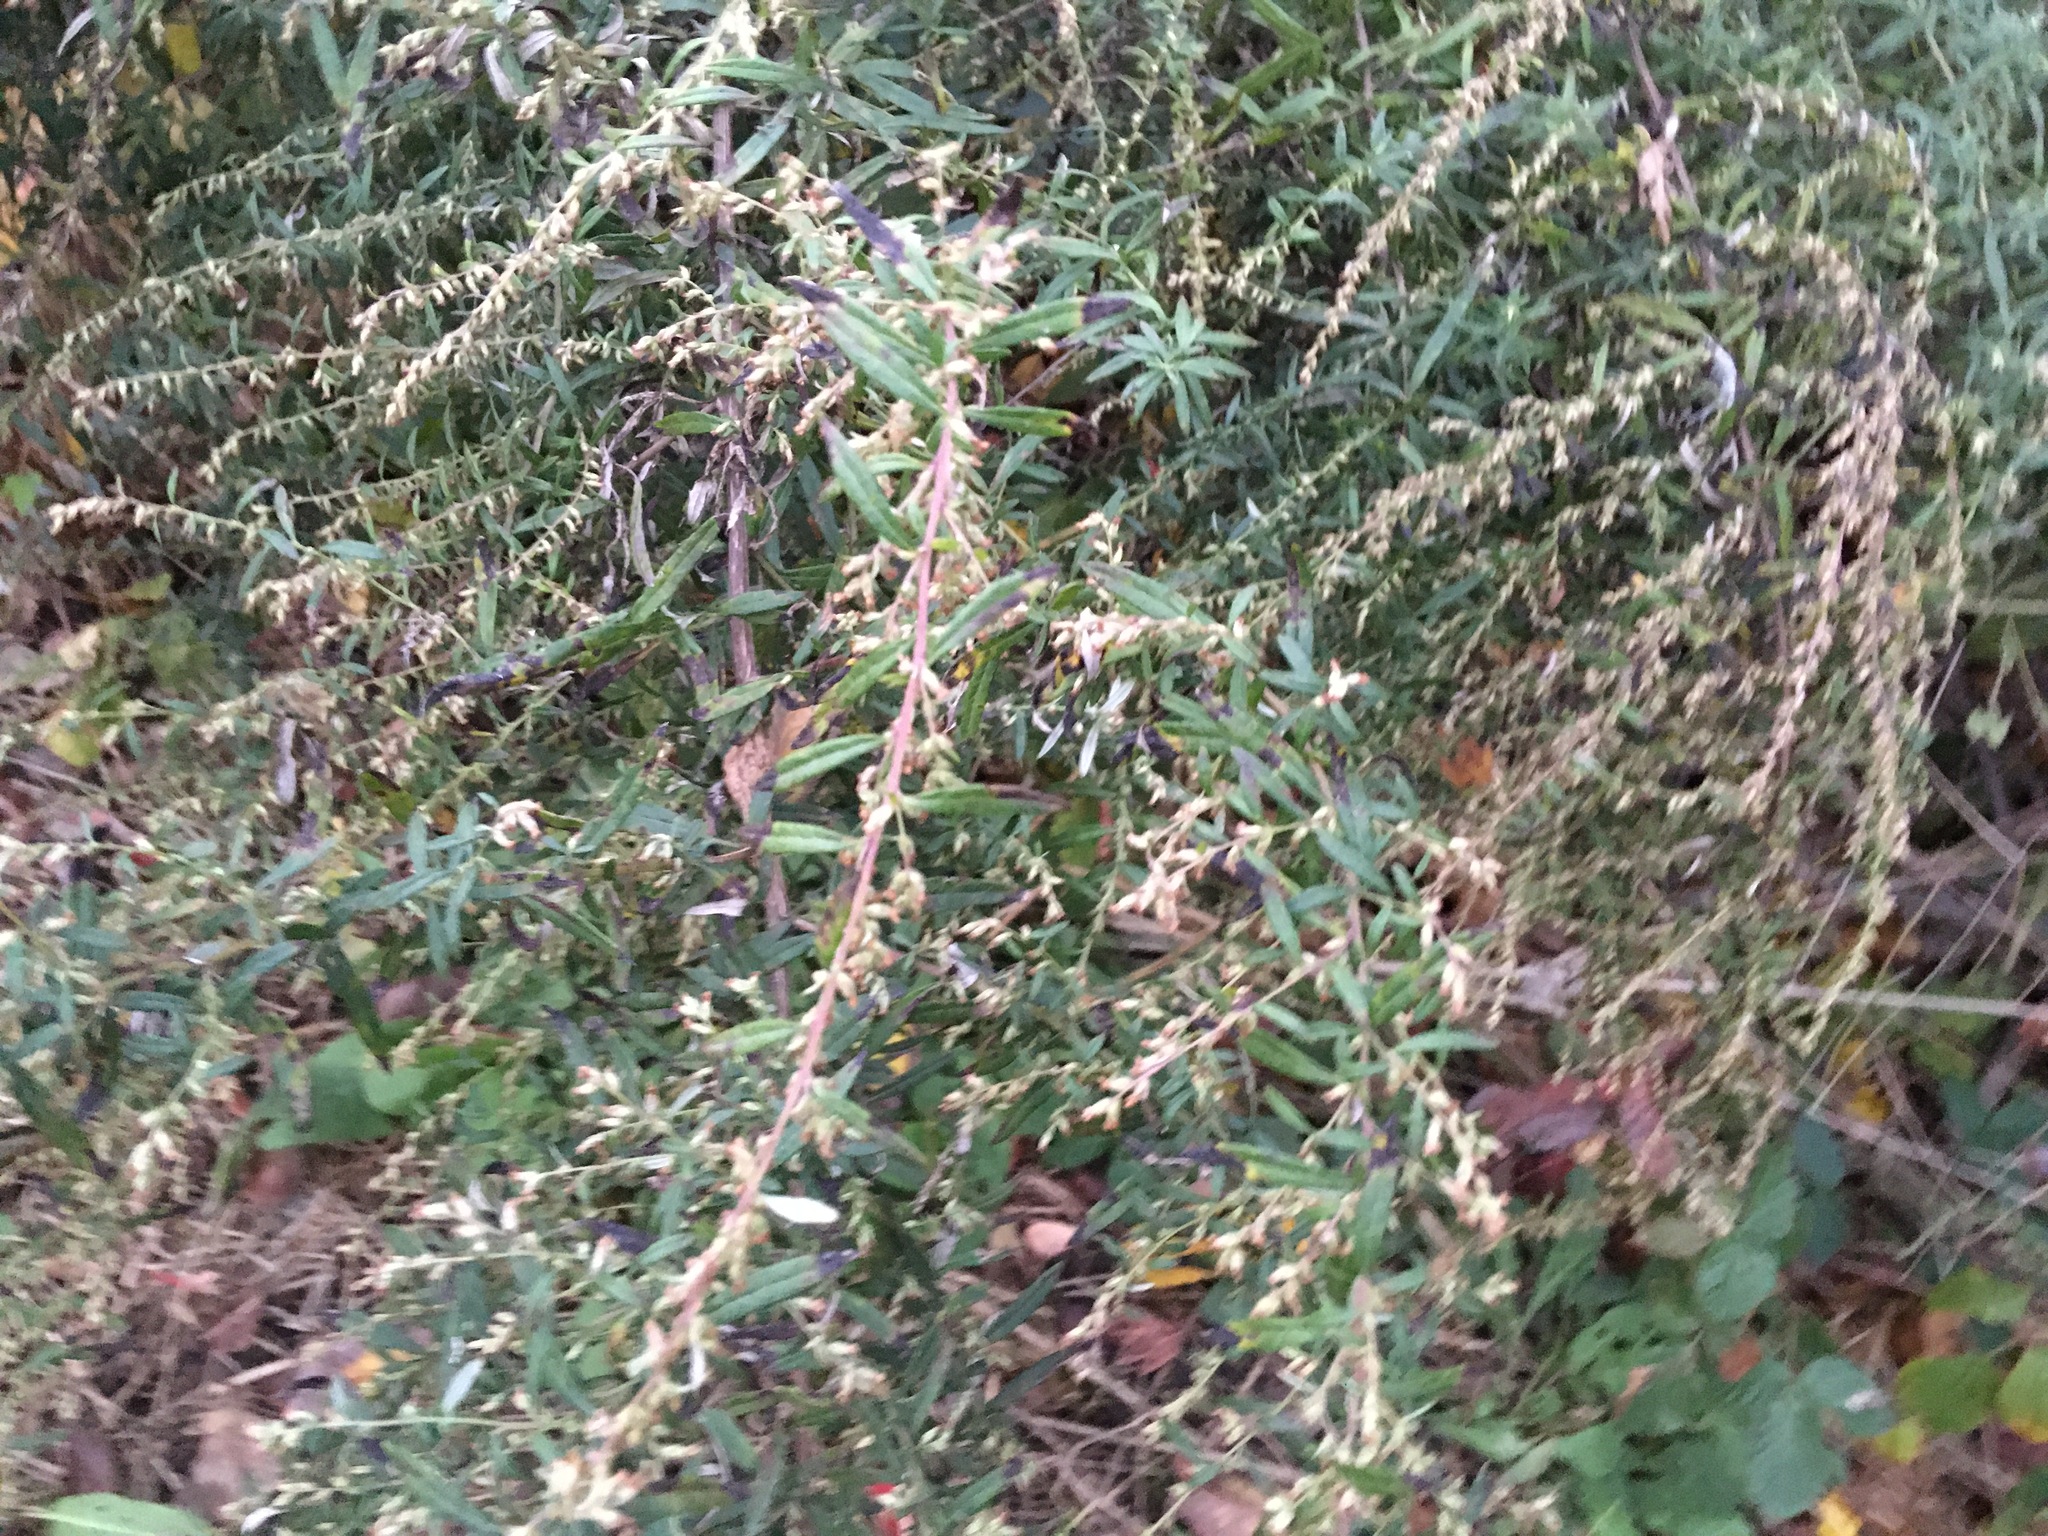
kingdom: Plantae
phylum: Tracheophyta
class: Magnoliopsida
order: Asterales
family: Asteraceae
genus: Artemisia
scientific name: Artemisia vulgaris
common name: Mugwort
